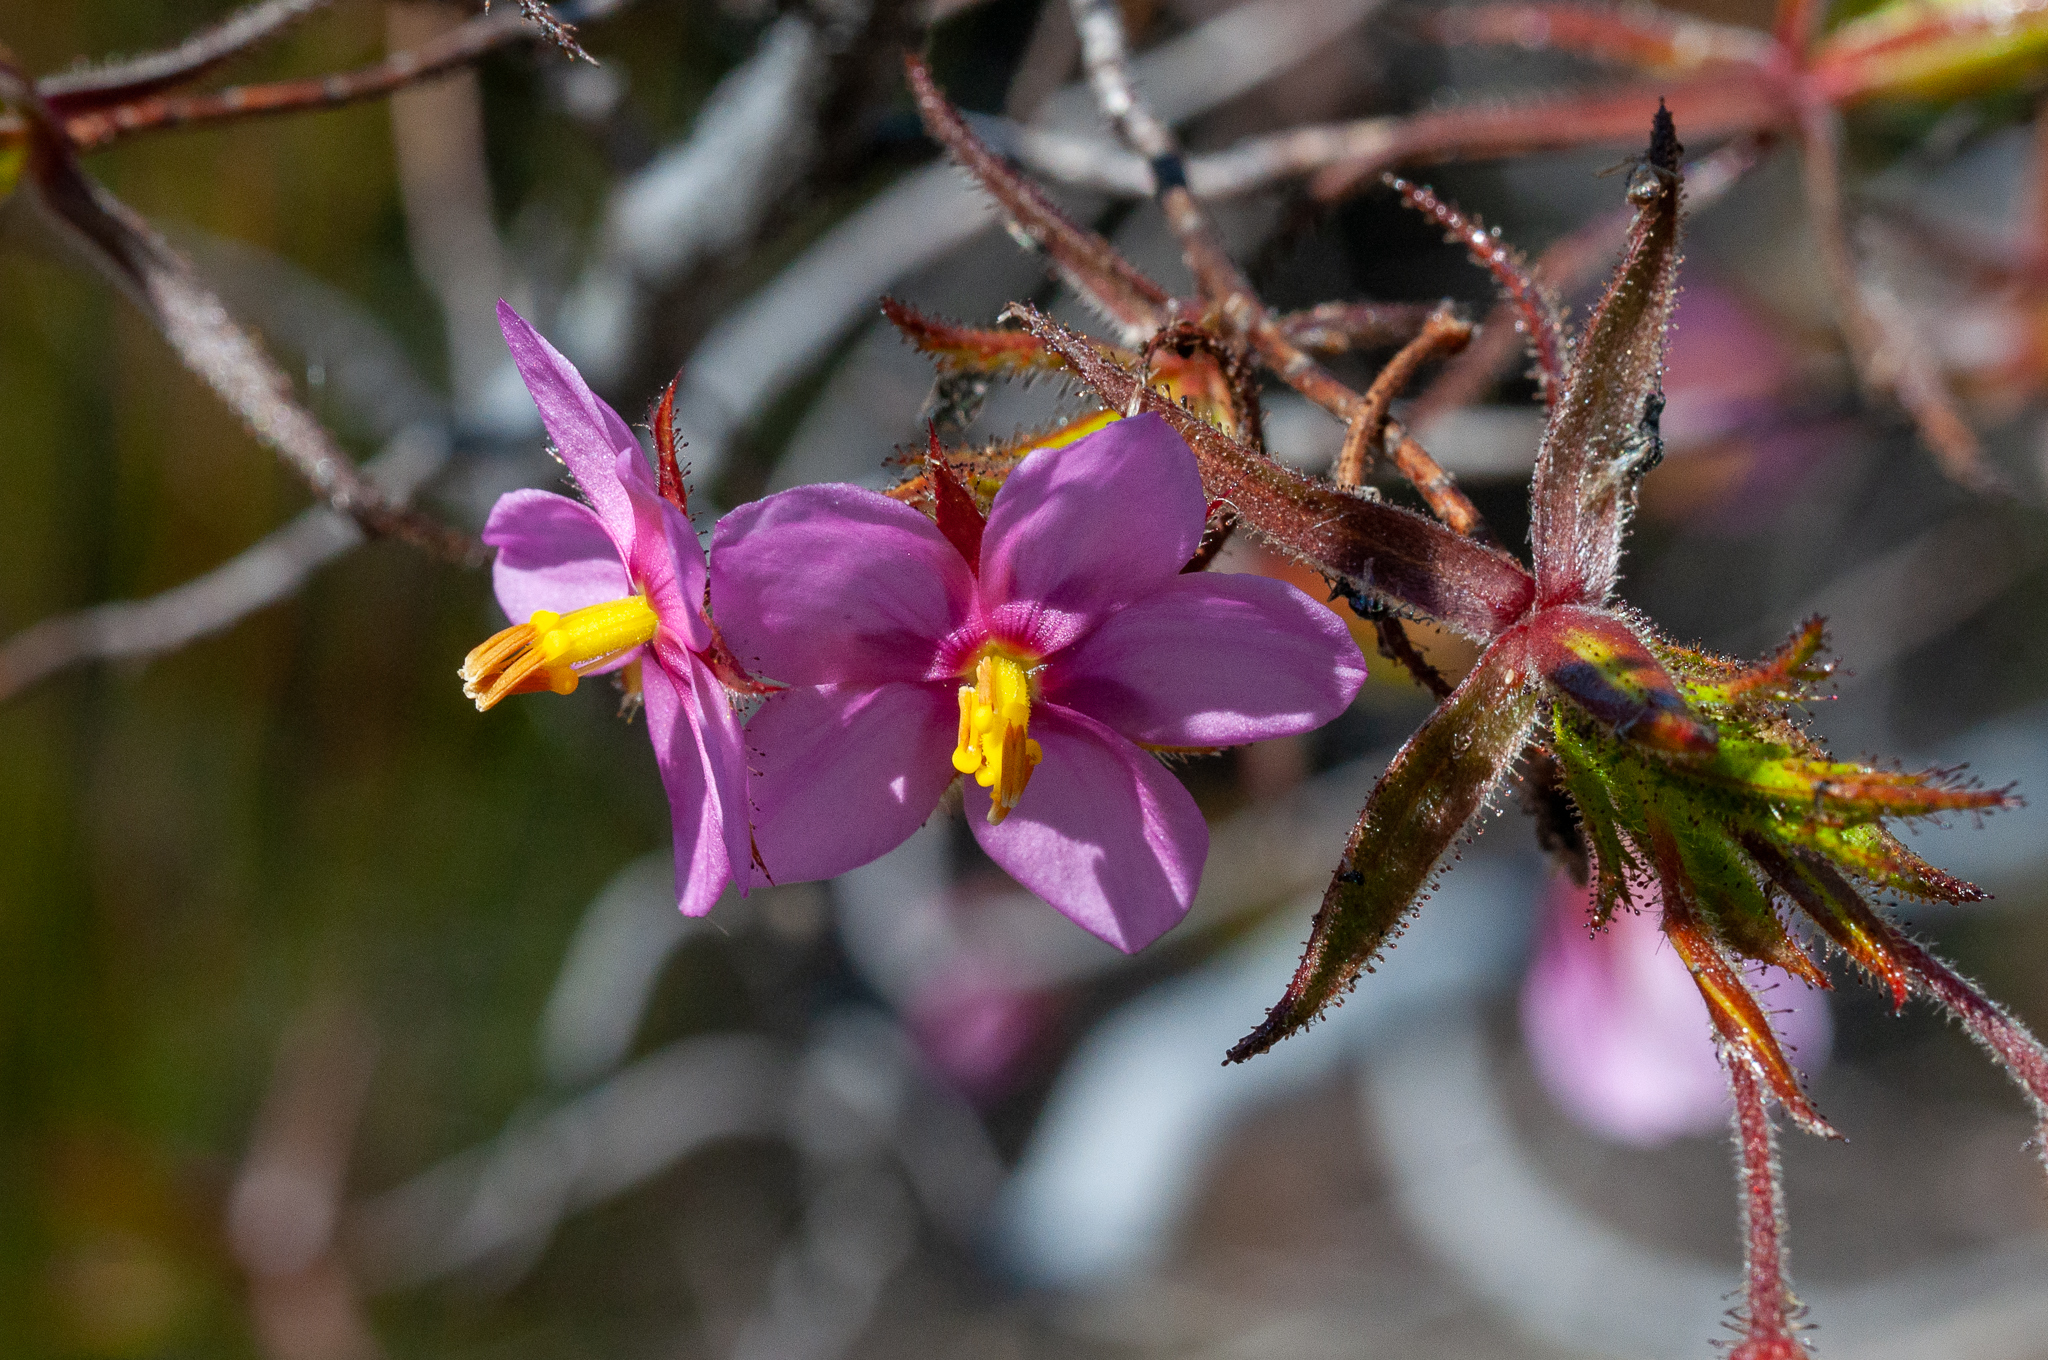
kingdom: Plantae
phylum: Tracheophyta
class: Magnoliopsida
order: Ericales
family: Roridulaceae
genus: Roridula
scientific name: Roridula dentata
